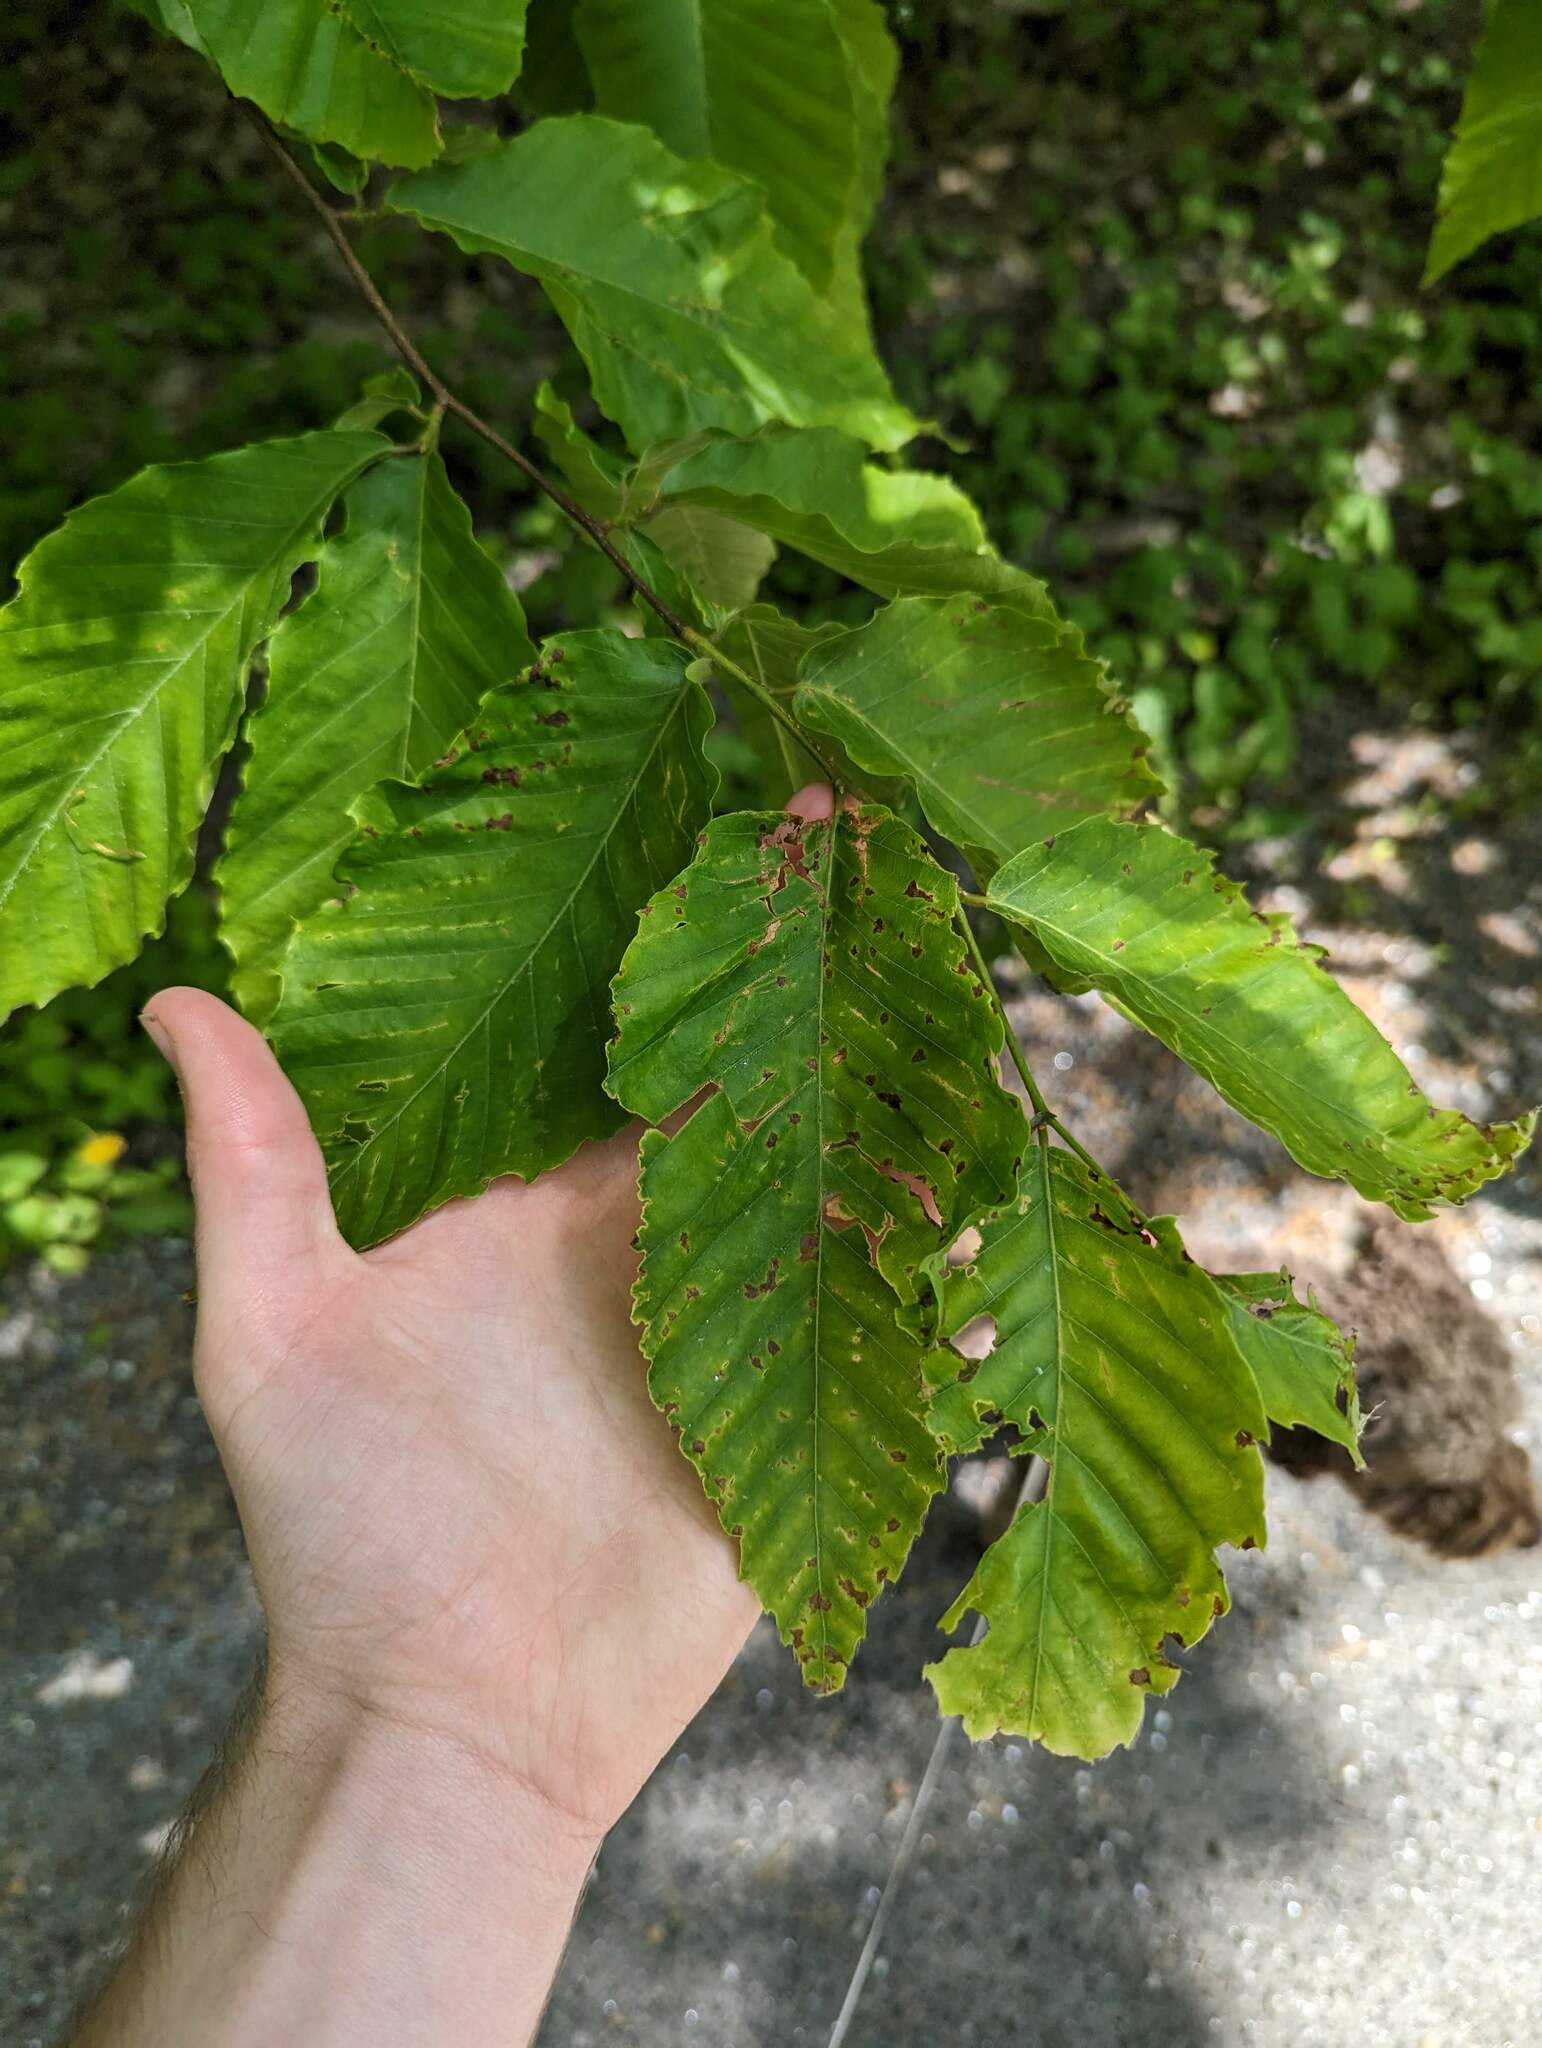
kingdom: Plantae
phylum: Tracheophyta
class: Magnoliopsida
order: Fagales
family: Fagaceae
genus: Fagus
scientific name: Fagus grandifolia
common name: American beech
